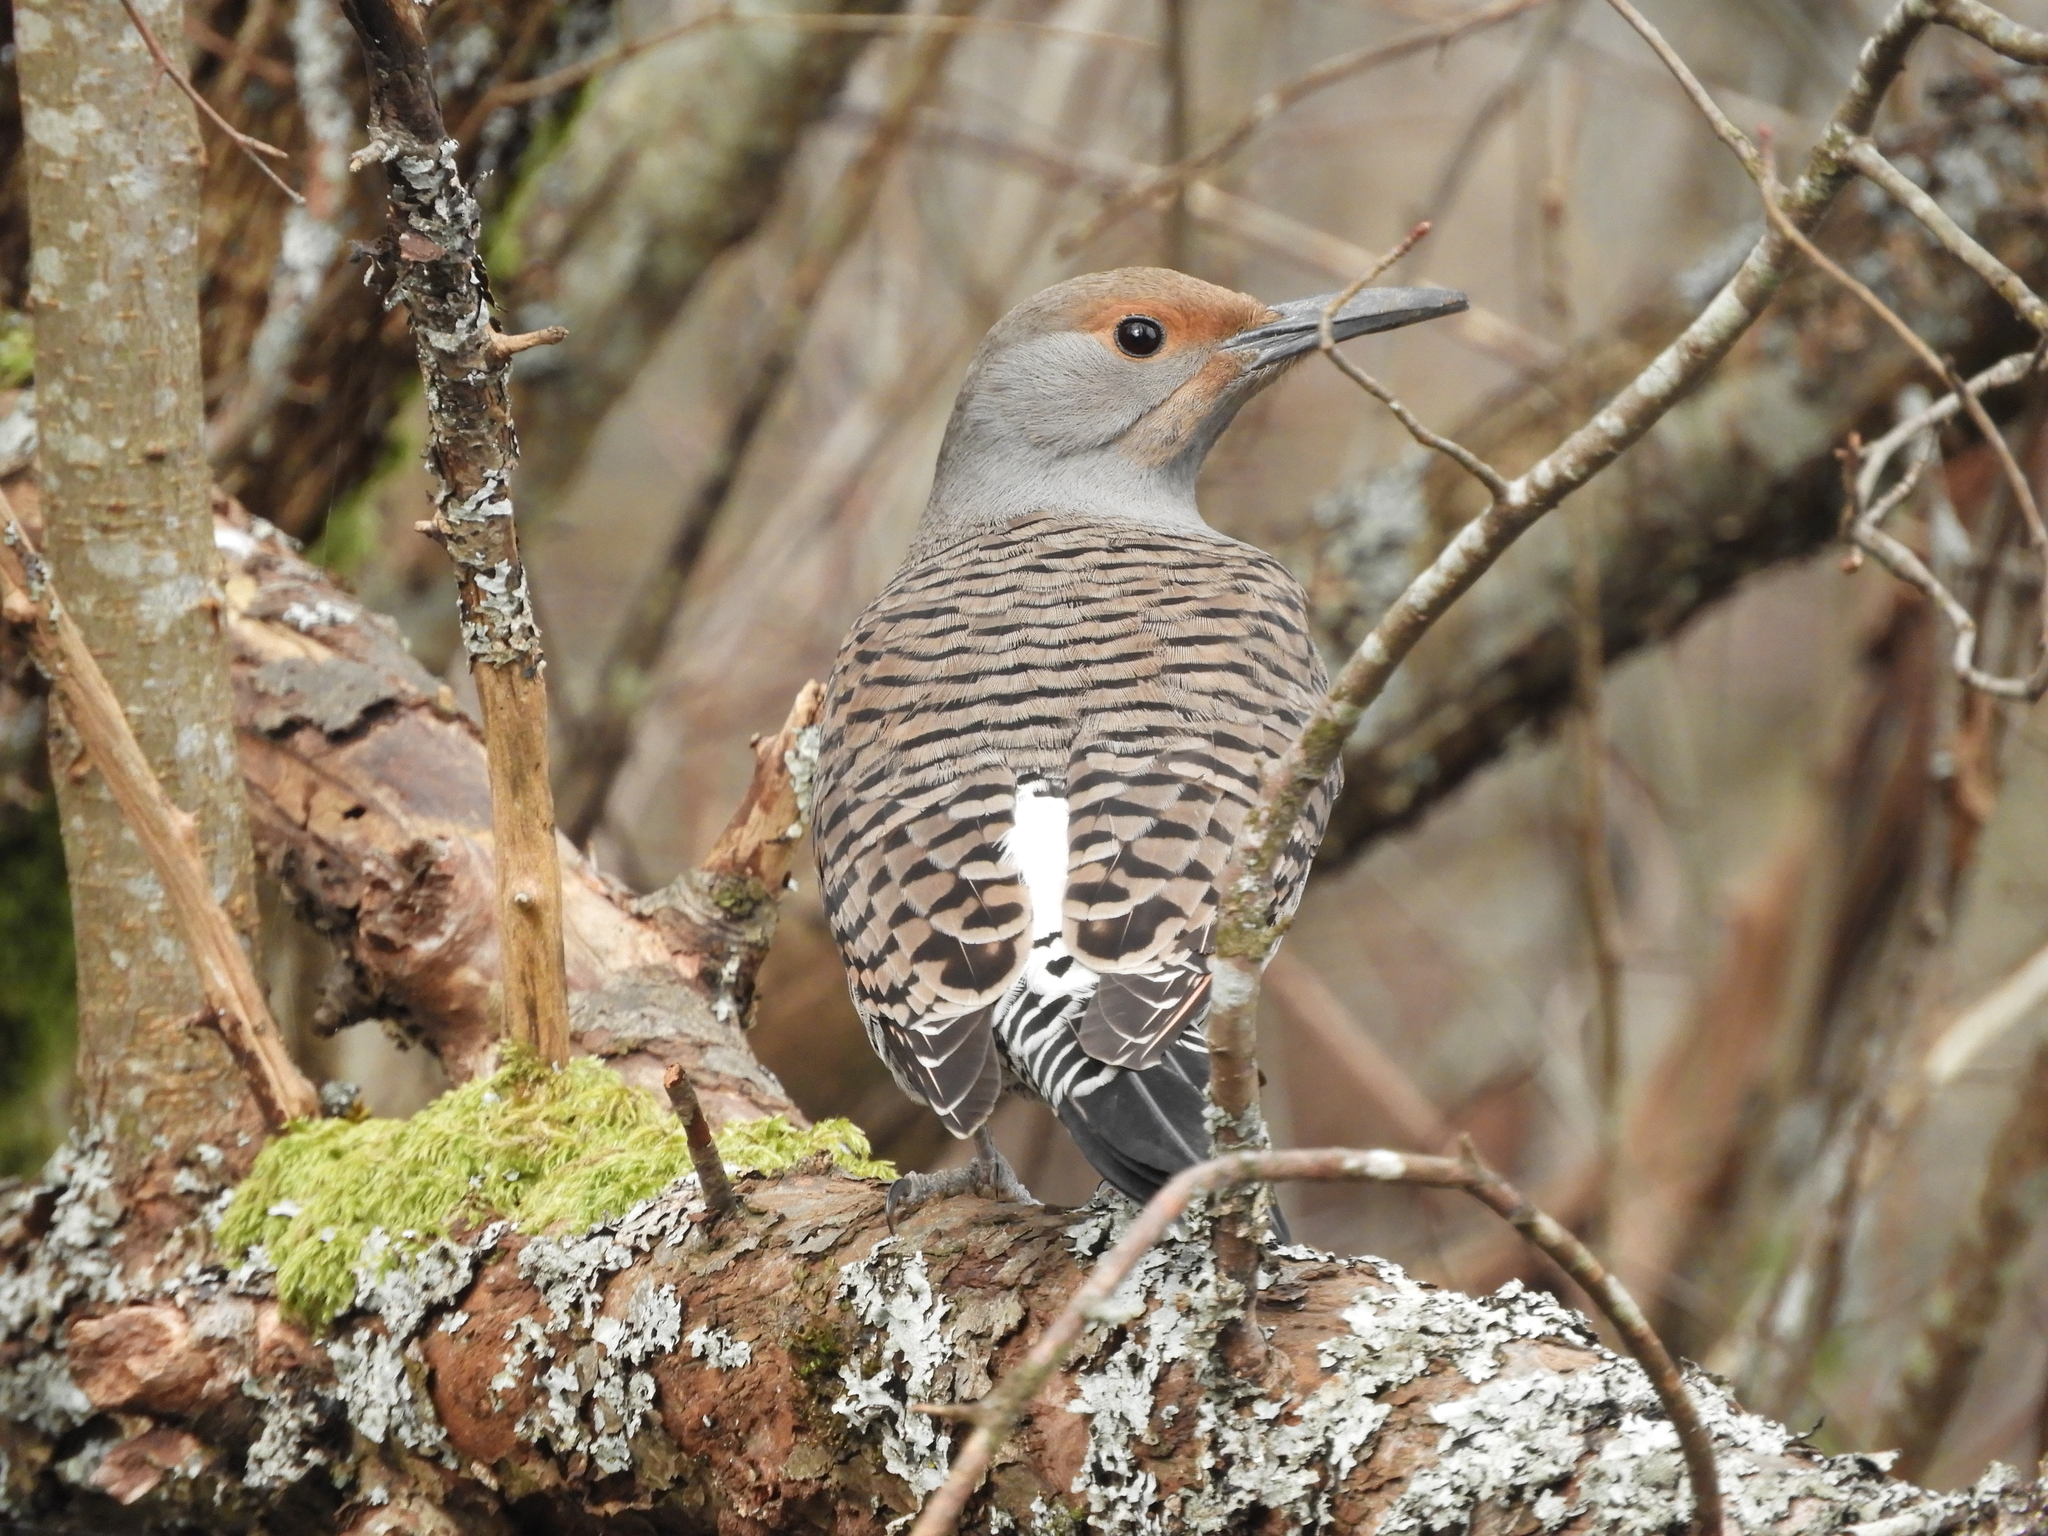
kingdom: Animalia
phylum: Chordata
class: Aves
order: Piciformes
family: Picidae
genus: Colaptes
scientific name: Colaptes auratus
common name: Northern flicker
